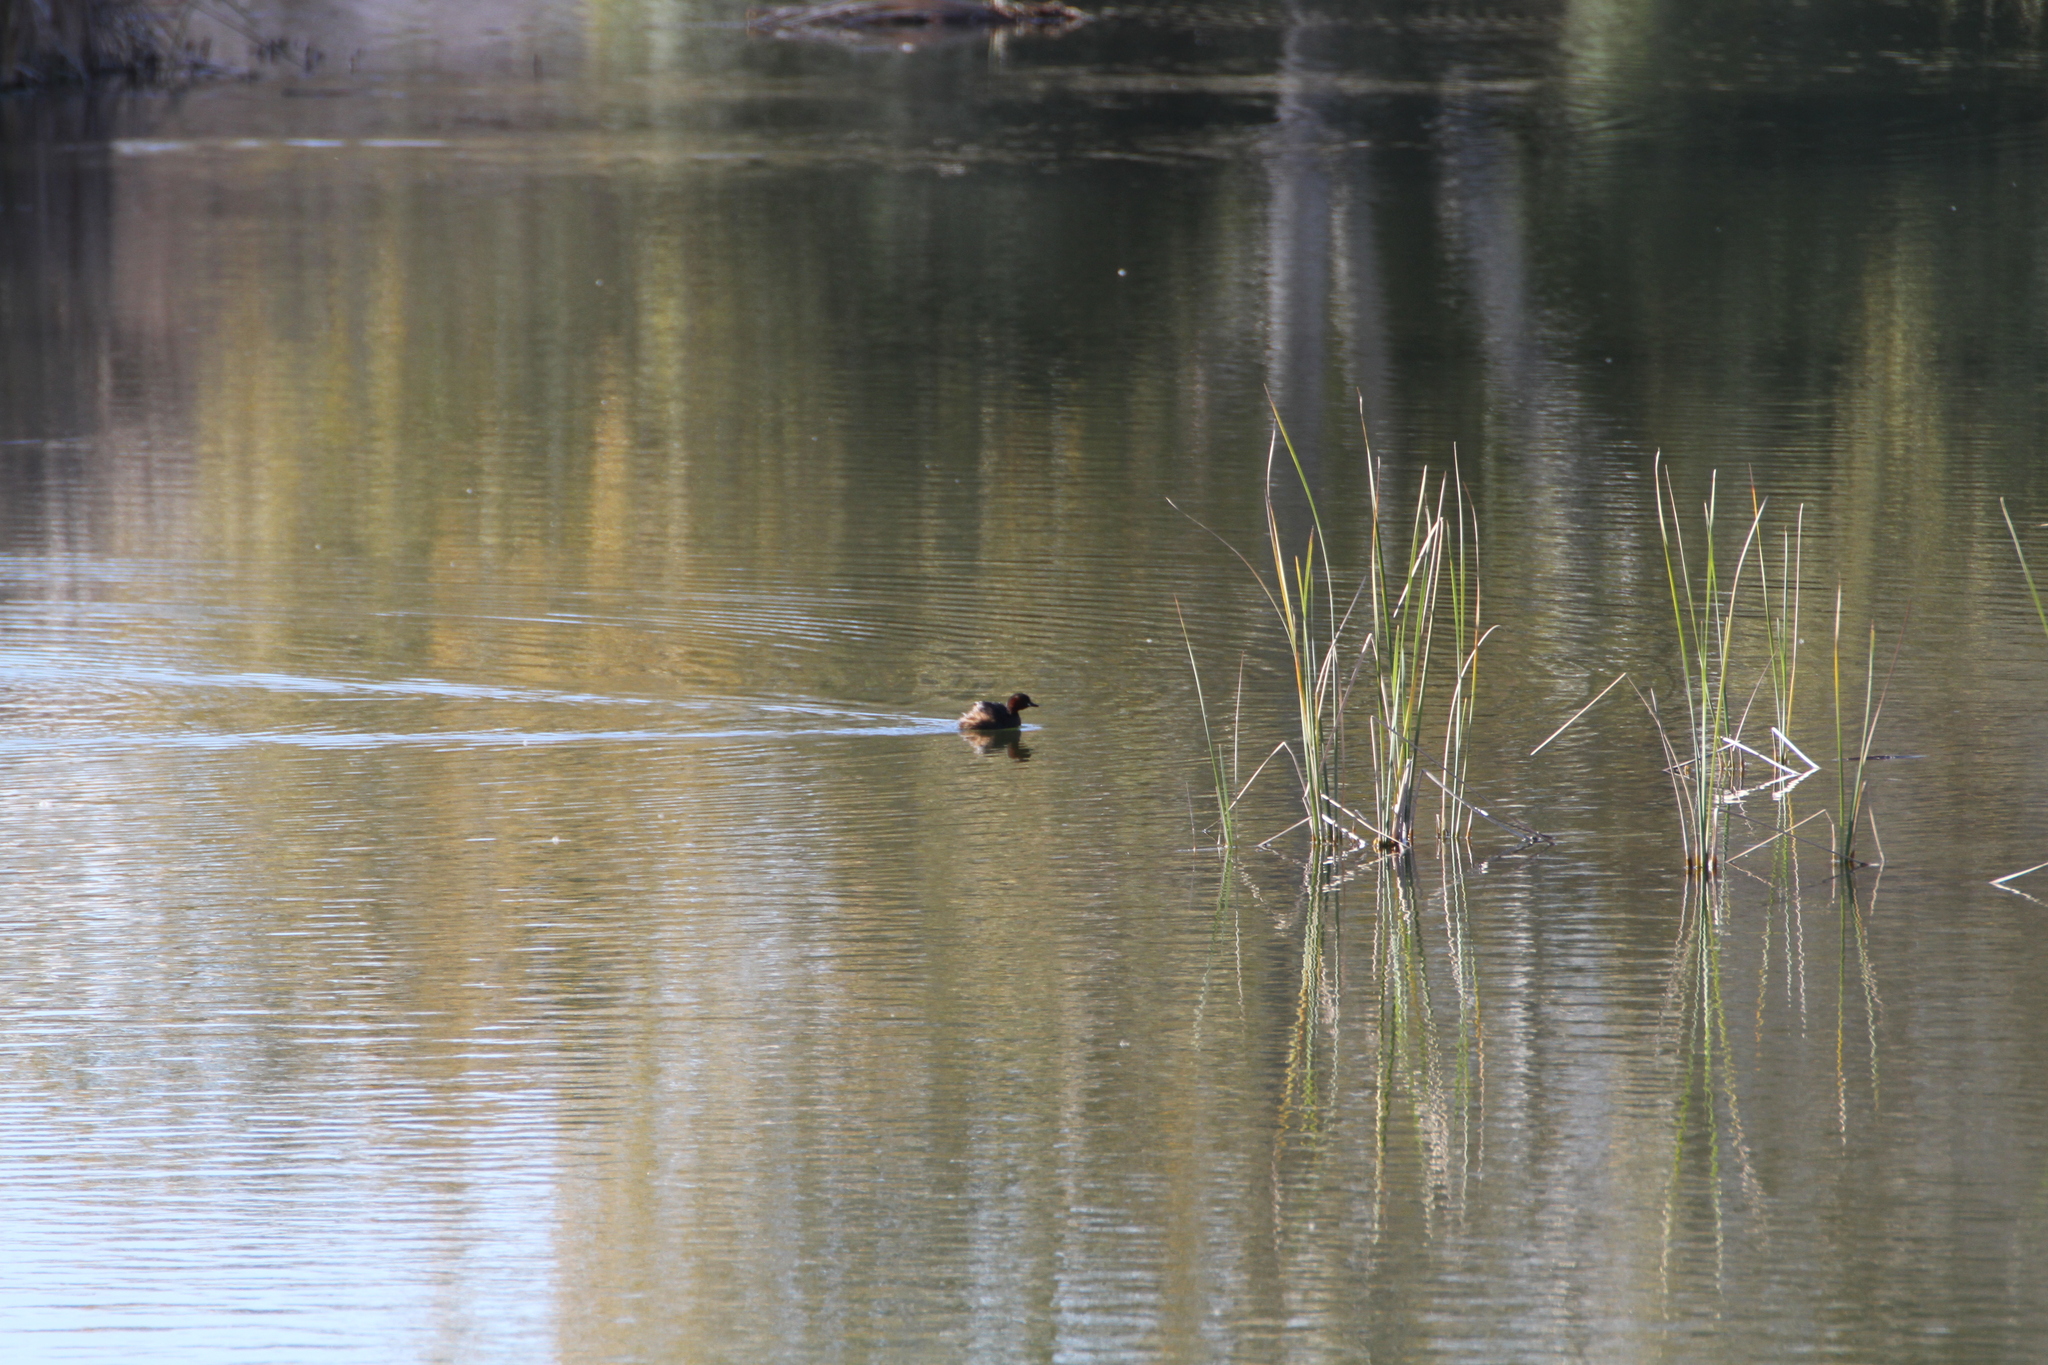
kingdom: Animalia
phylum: Chordata
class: Aves
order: Podicipediformes
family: Podicipedidae
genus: Tachybaptus
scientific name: Tachybaptus ruficollis
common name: Little grebe
